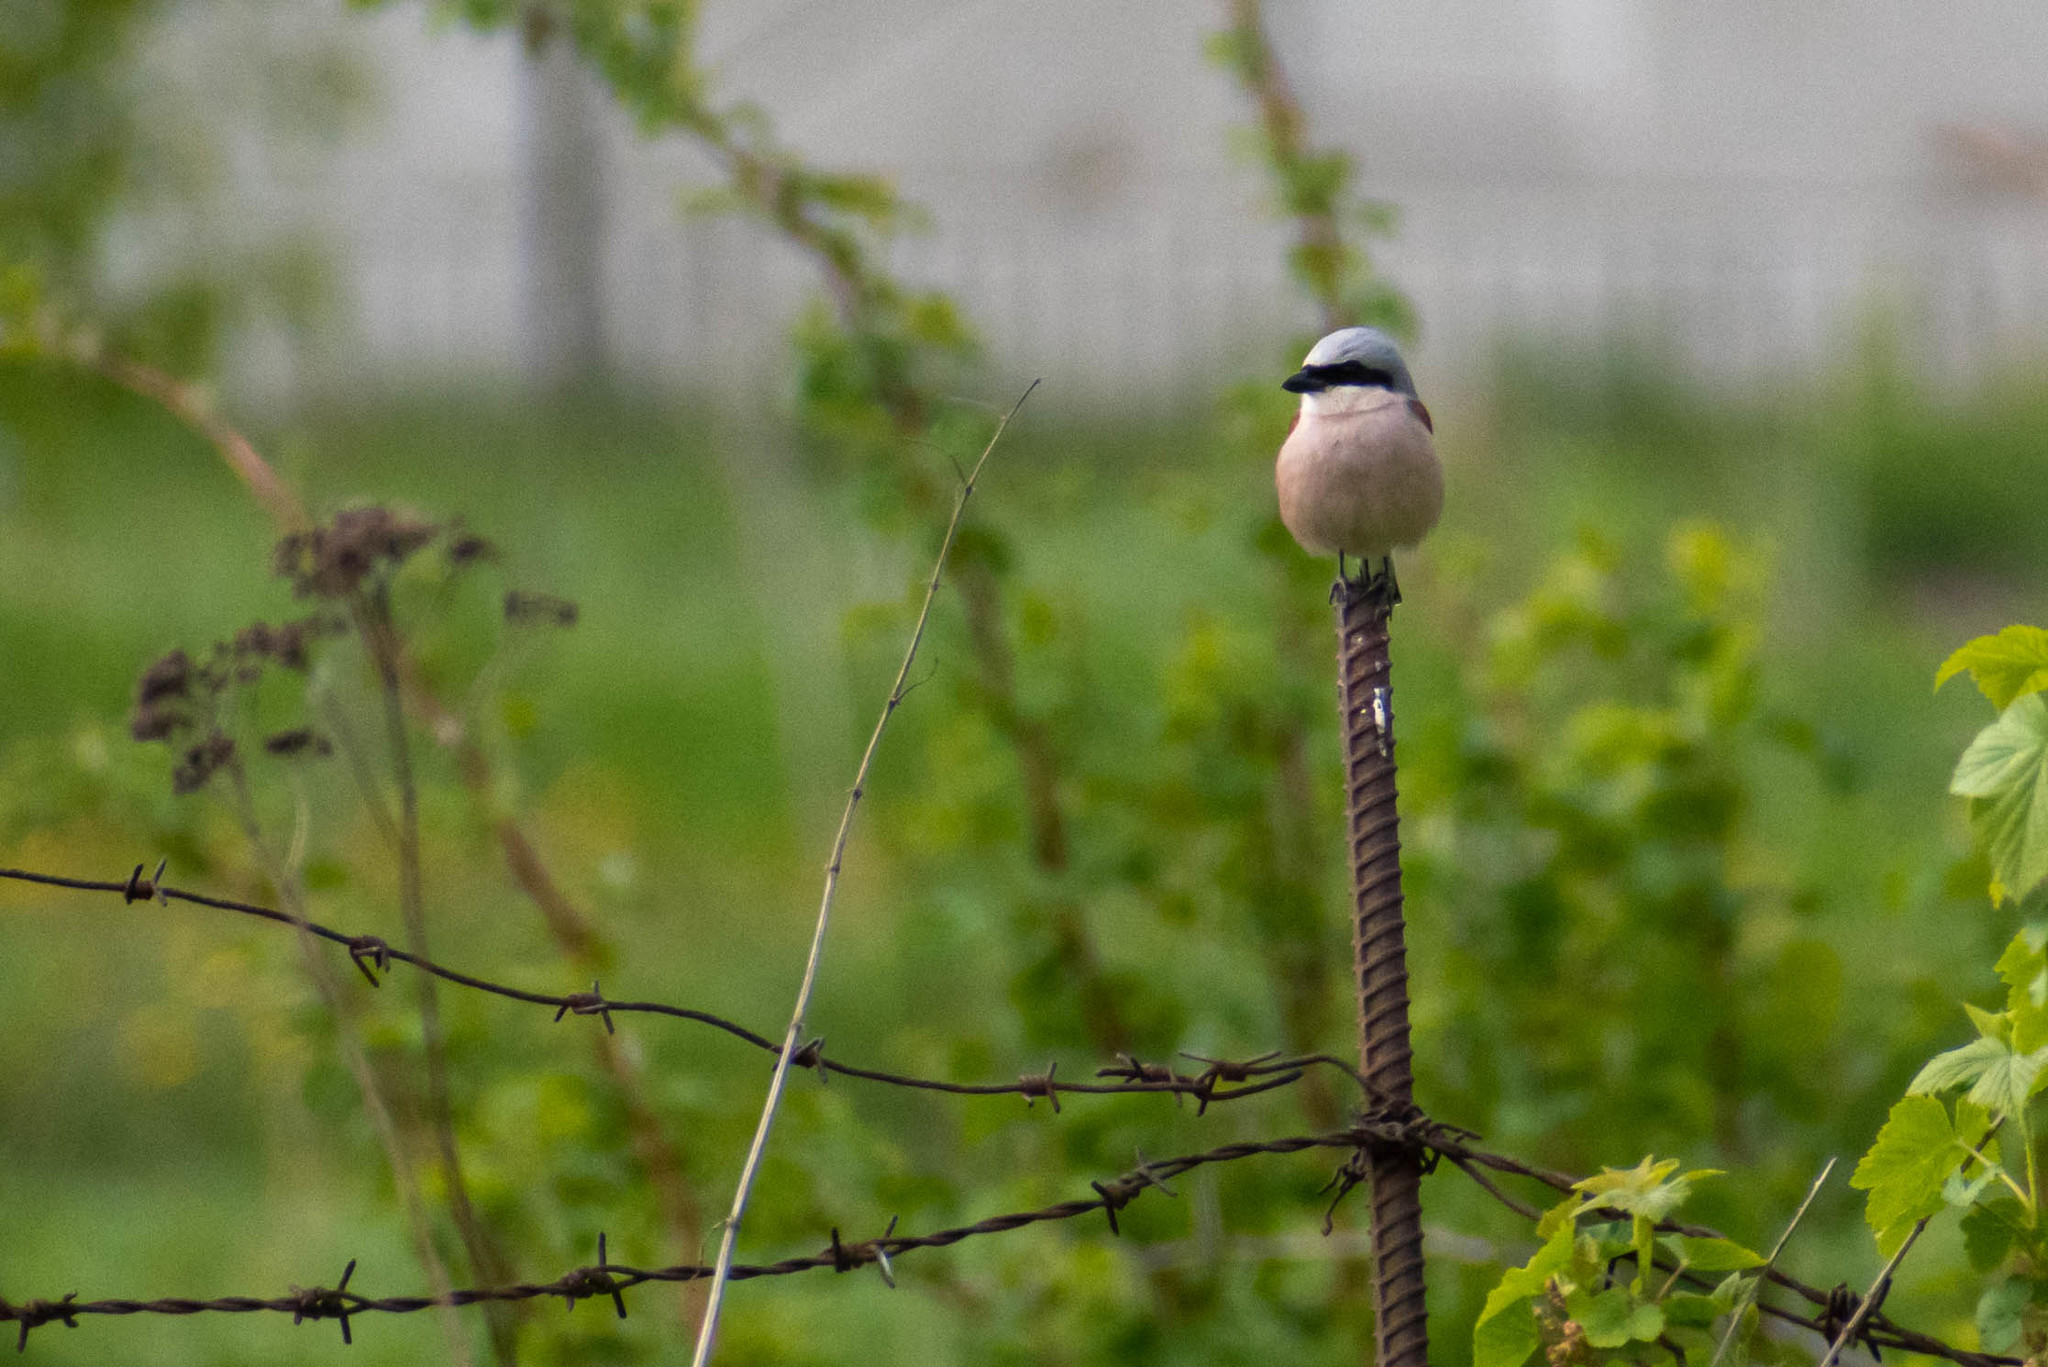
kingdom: Animalia
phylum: Chordata
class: Aves
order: Passeriformes
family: Laniidae
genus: Lanius
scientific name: Lanius collurio
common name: Red-backed shrike
